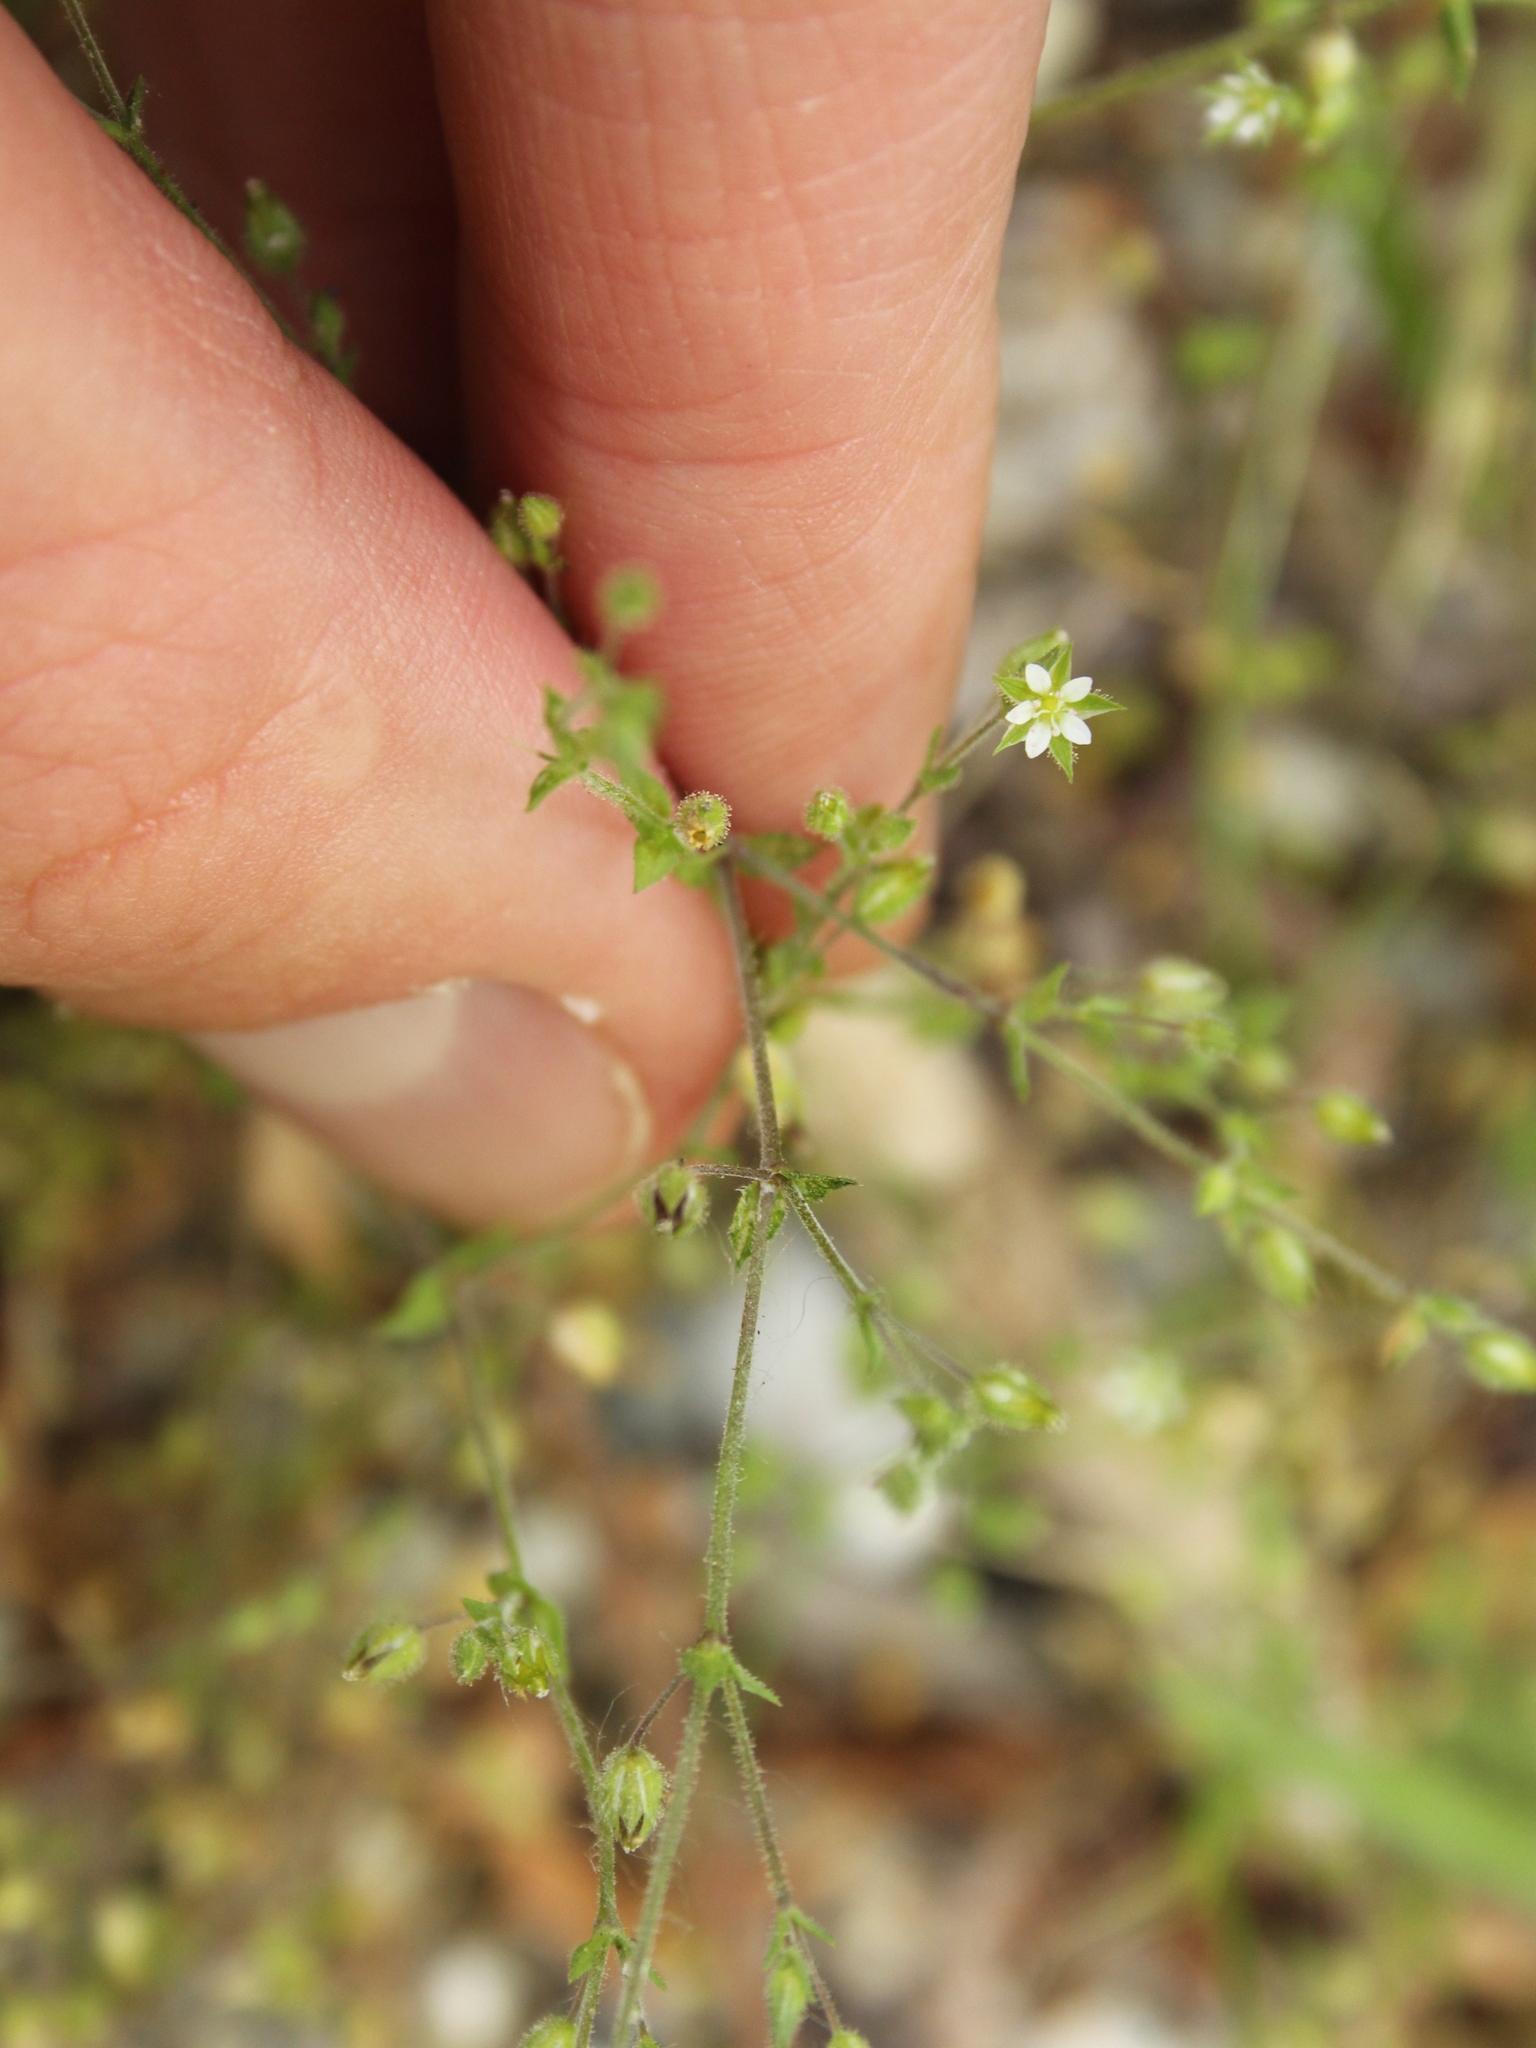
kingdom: Plantae
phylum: Tracheophyta
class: Magnoliopsida
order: Caryophyllales
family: Caryophyllaceae
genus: Arenaria
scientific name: Arenaria serpyllifolia
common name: Thyme-leaved sandwort
